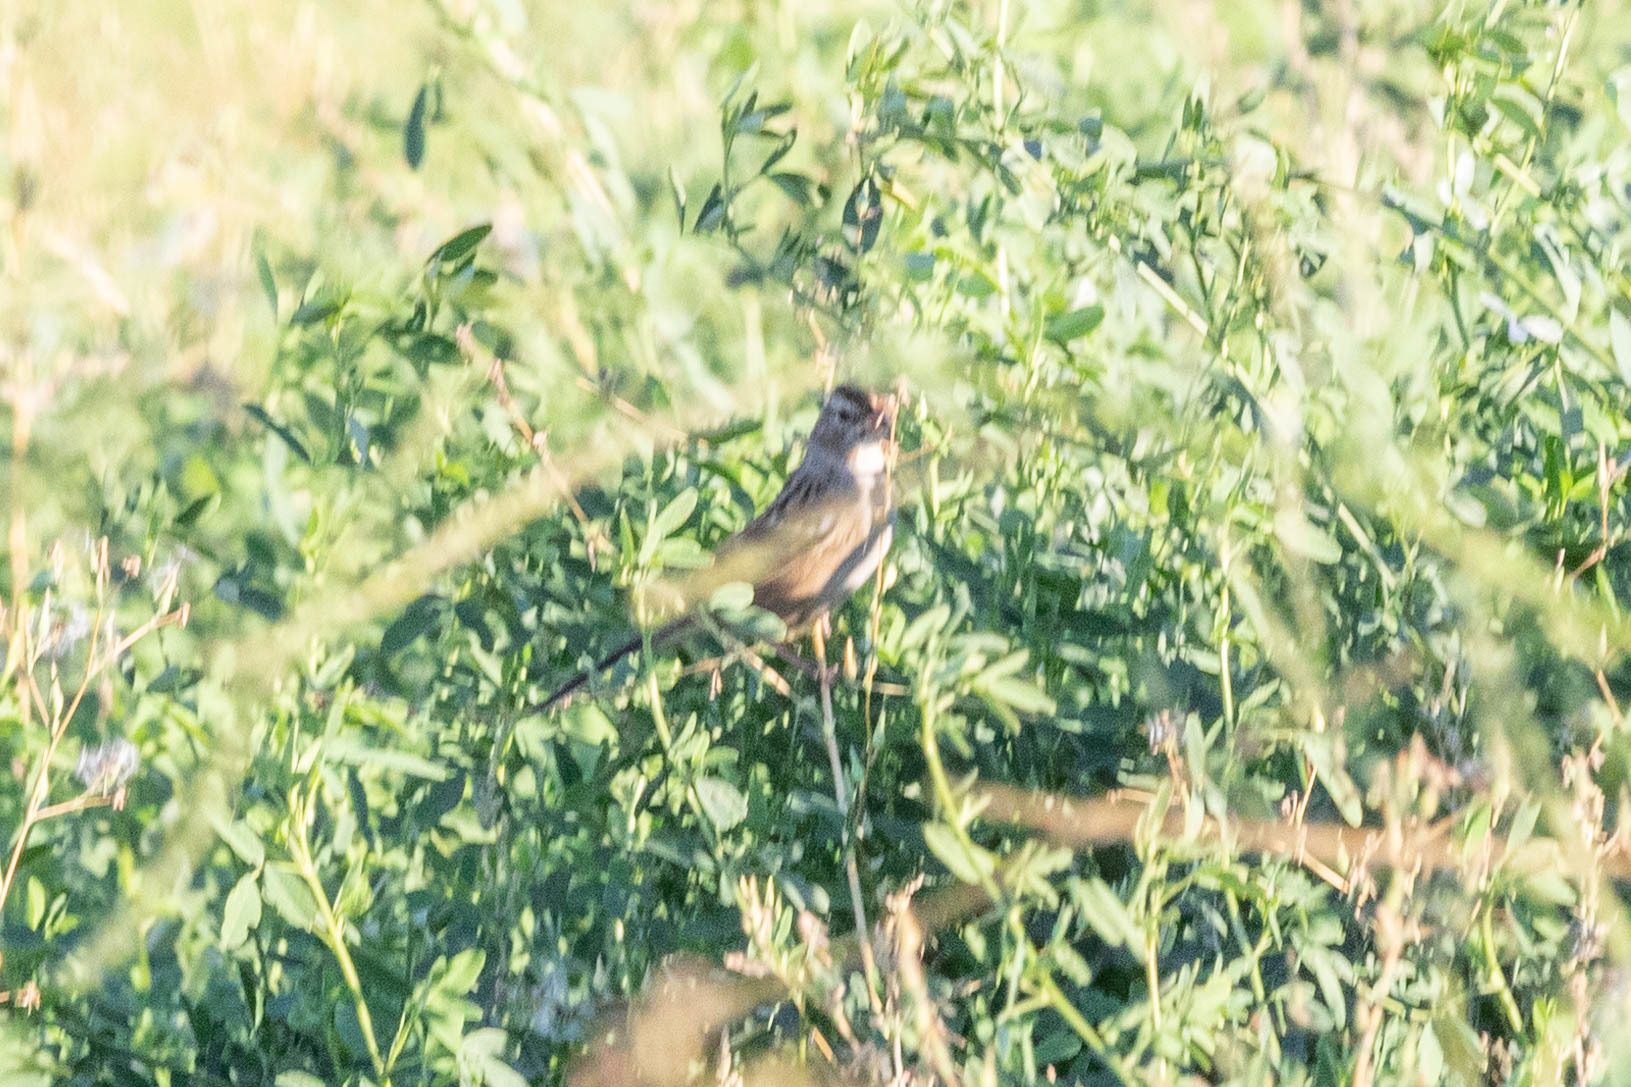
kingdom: Animalia
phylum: Chordata
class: Aves
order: Passeriformes
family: Passerellidae
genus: Zonotrichia
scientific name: Zonotrichia leucophrys
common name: White-crowned sparrow
